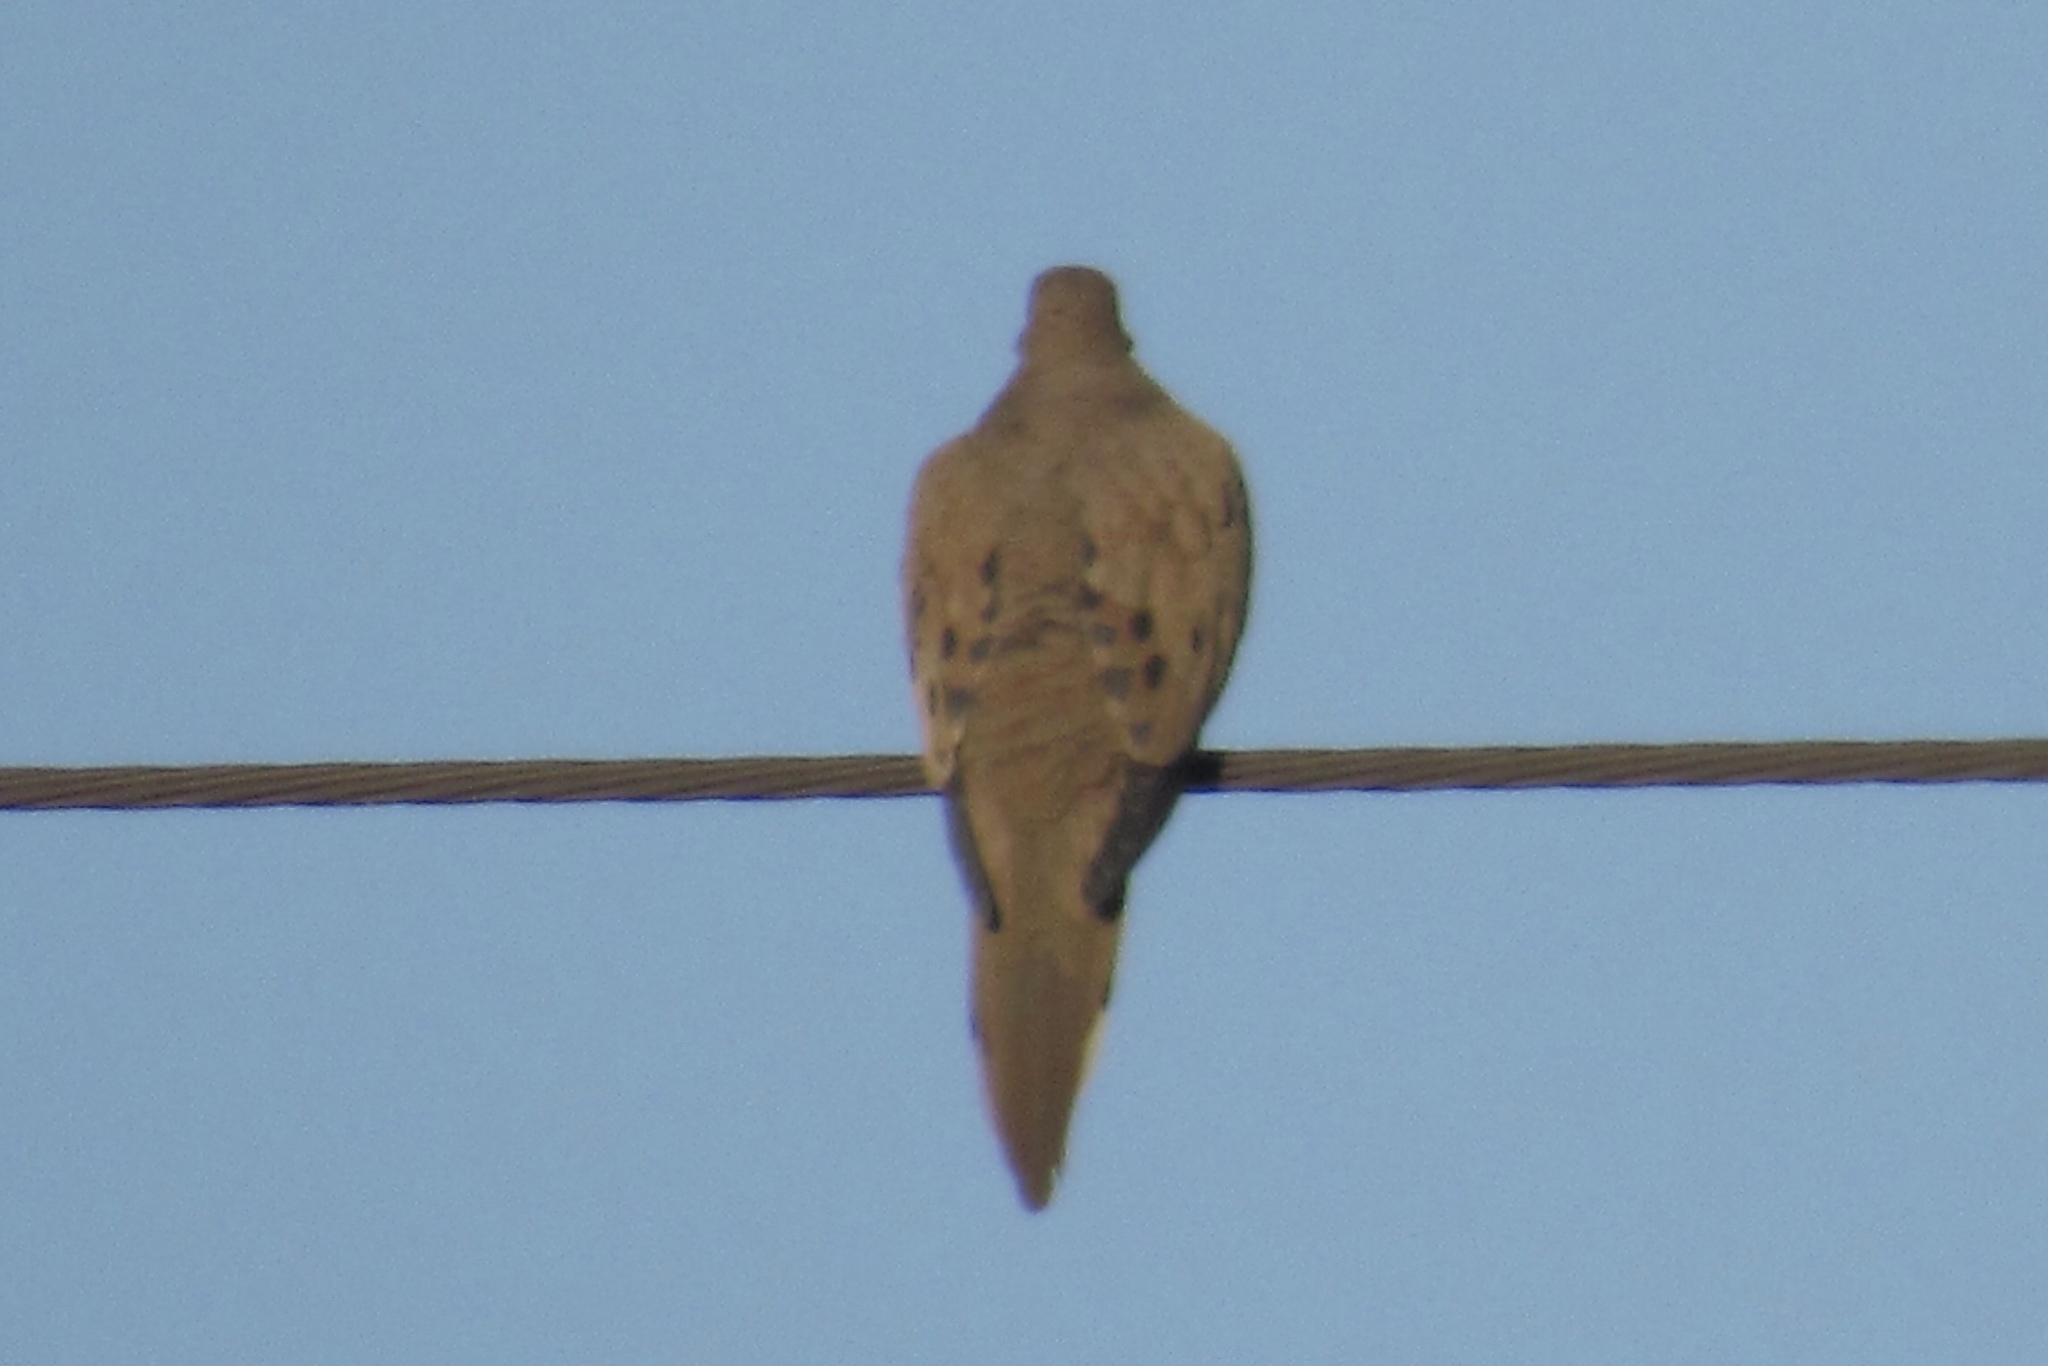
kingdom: Animalia
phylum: Chordata
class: Aves
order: Columbiformes
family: Columbidae
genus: Zenaida
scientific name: Zenaida macroura
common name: Mourning dove
